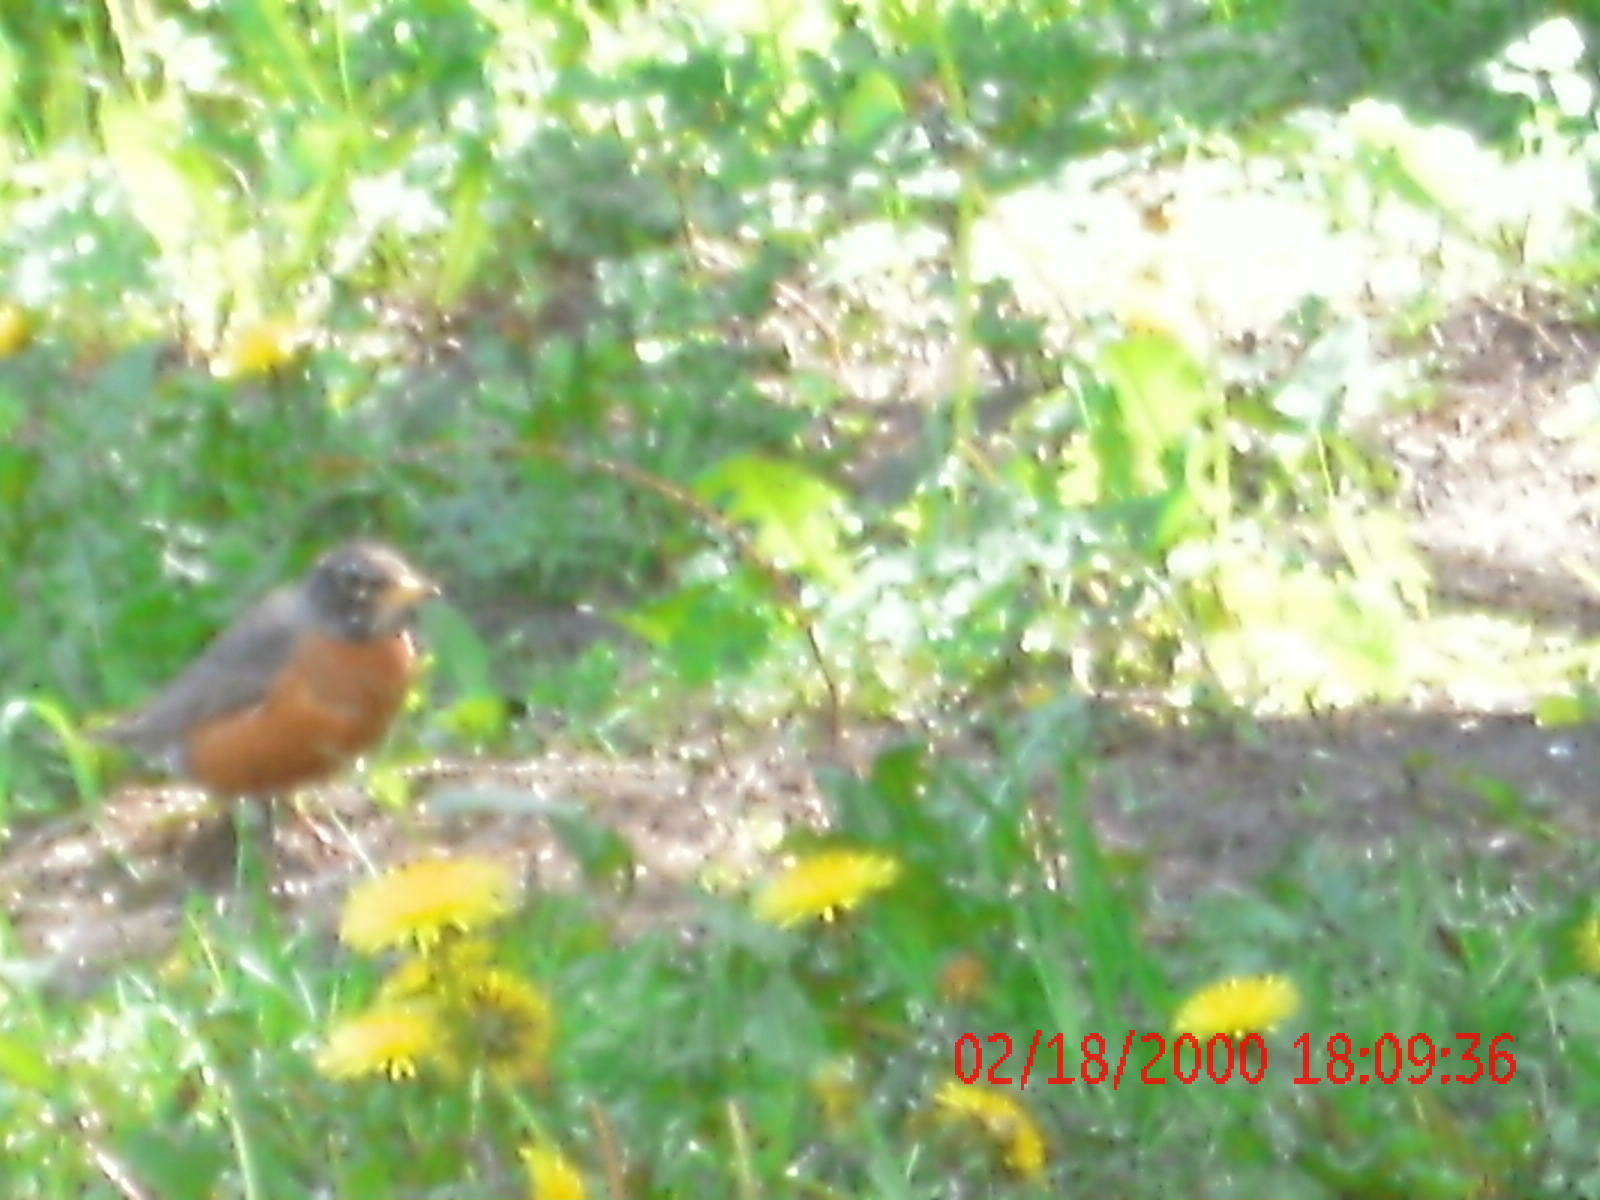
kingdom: Animalia
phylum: Chordata
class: Aves
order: Passeriformes
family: Turdidae
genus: Turdus
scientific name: Turdus migratorius
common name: American robin
